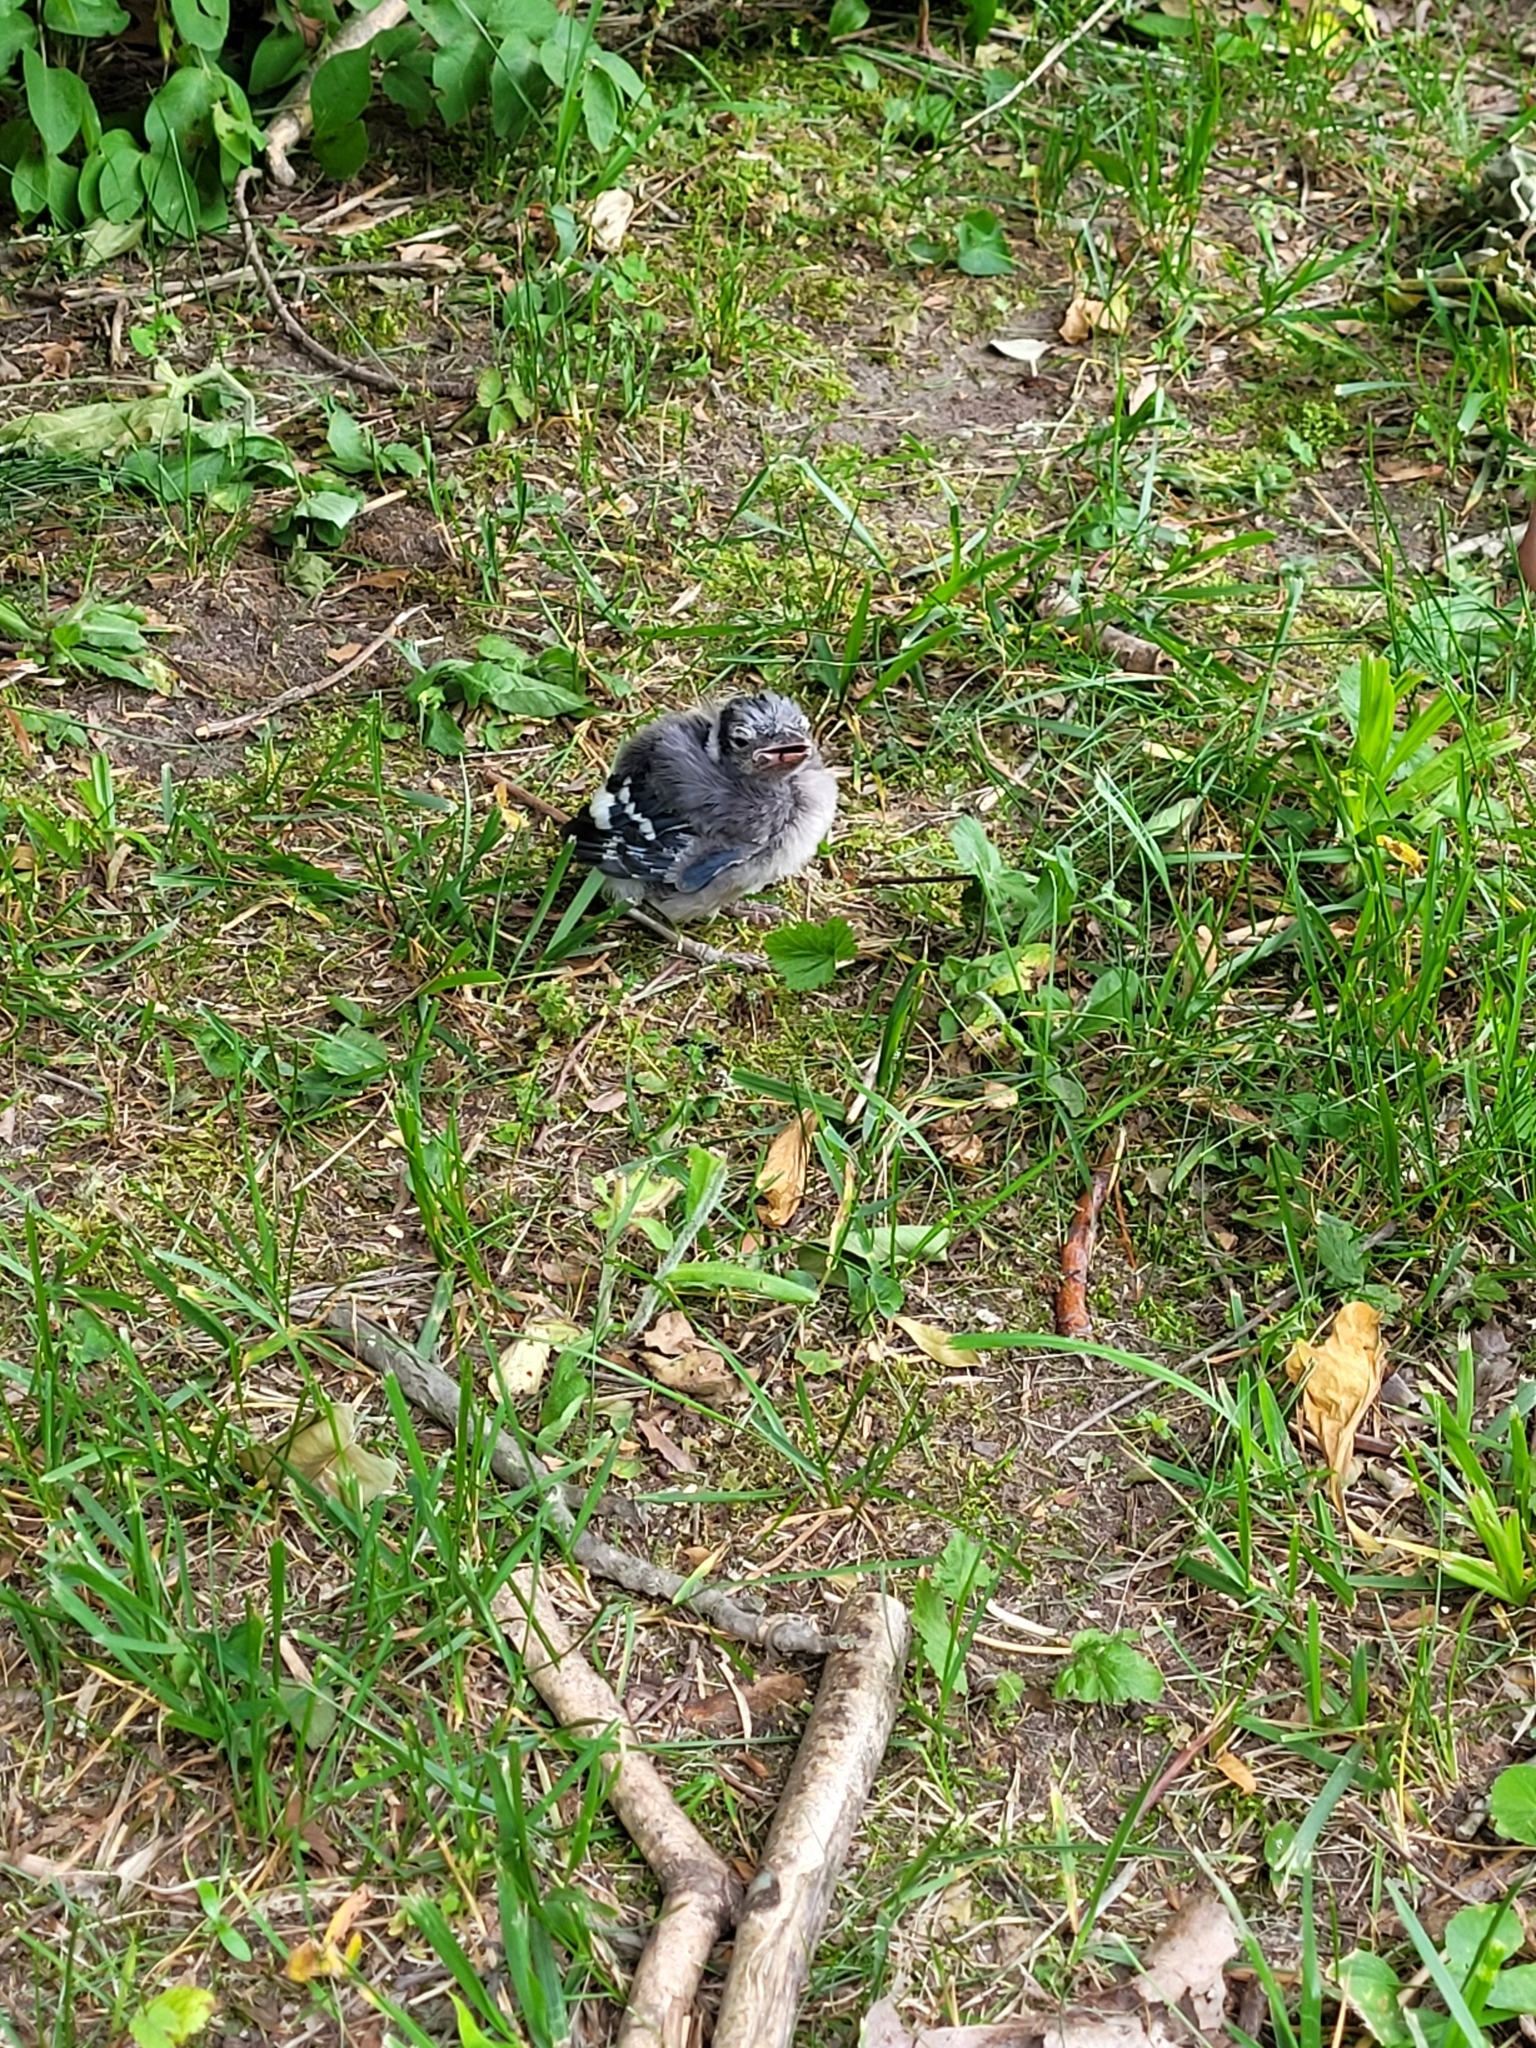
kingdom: Animalia
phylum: Chordata
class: Aves
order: Passeriformes
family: Corvidae
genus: Cyanocitta
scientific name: Cyanocitta cristata
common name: Blue jay
